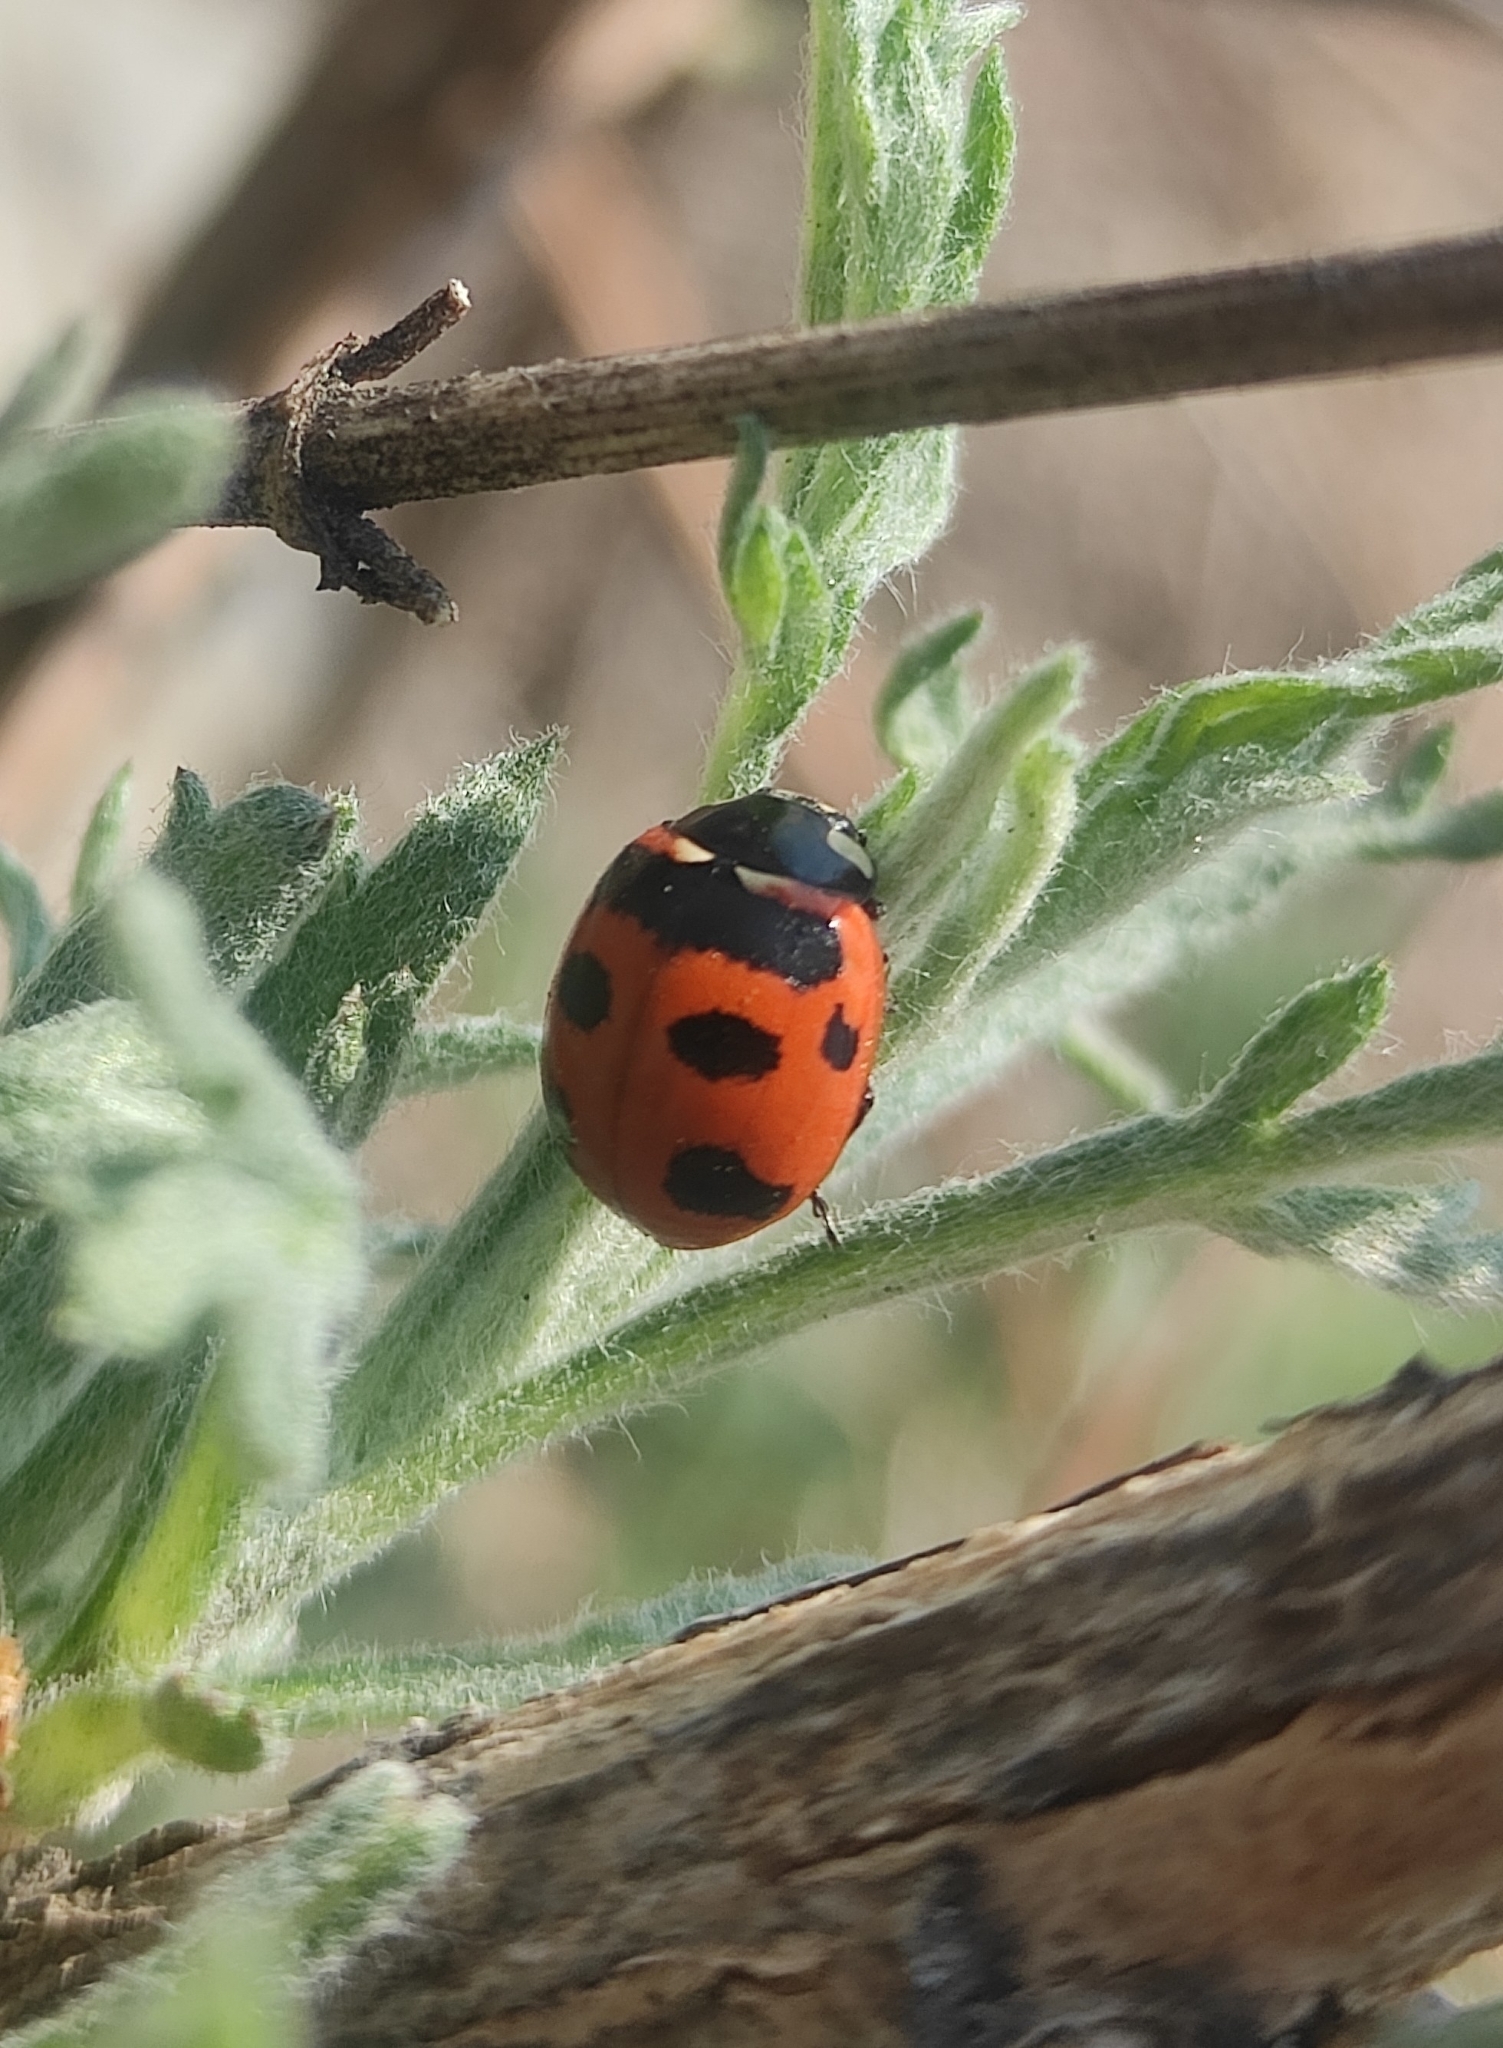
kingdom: Animalia
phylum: Arthropoda
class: Insecta
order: Coleoptera
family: Coccinellidae
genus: Coccinella
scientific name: Coccinella transversoguttata
